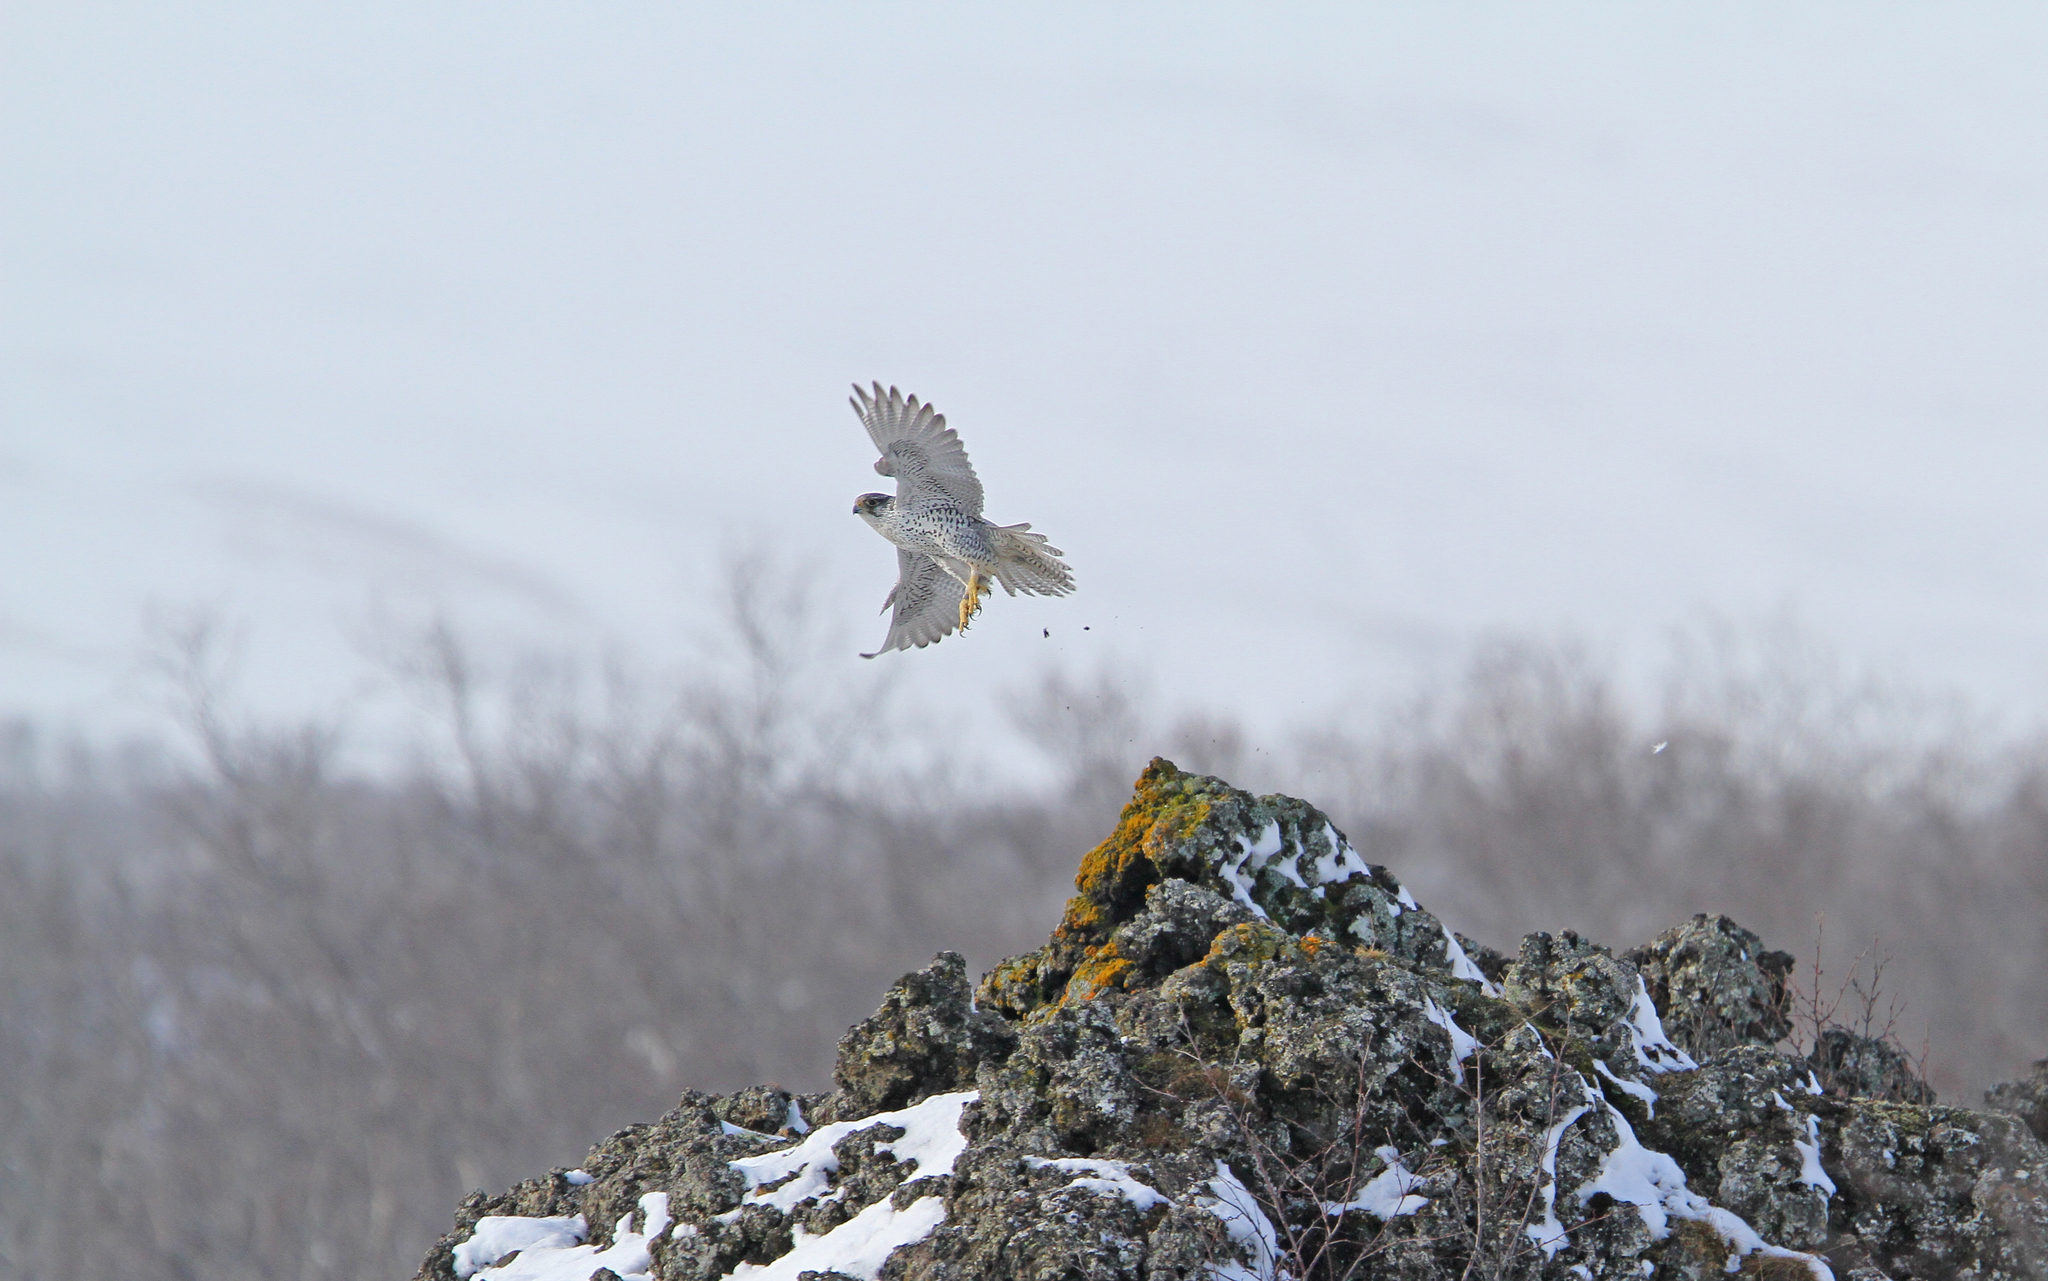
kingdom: Animalia
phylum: Chordata
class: Aves
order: Falconiformes
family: Falconidae
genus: Falco
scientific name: Falco rusticolus
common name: Gyrfalcon
